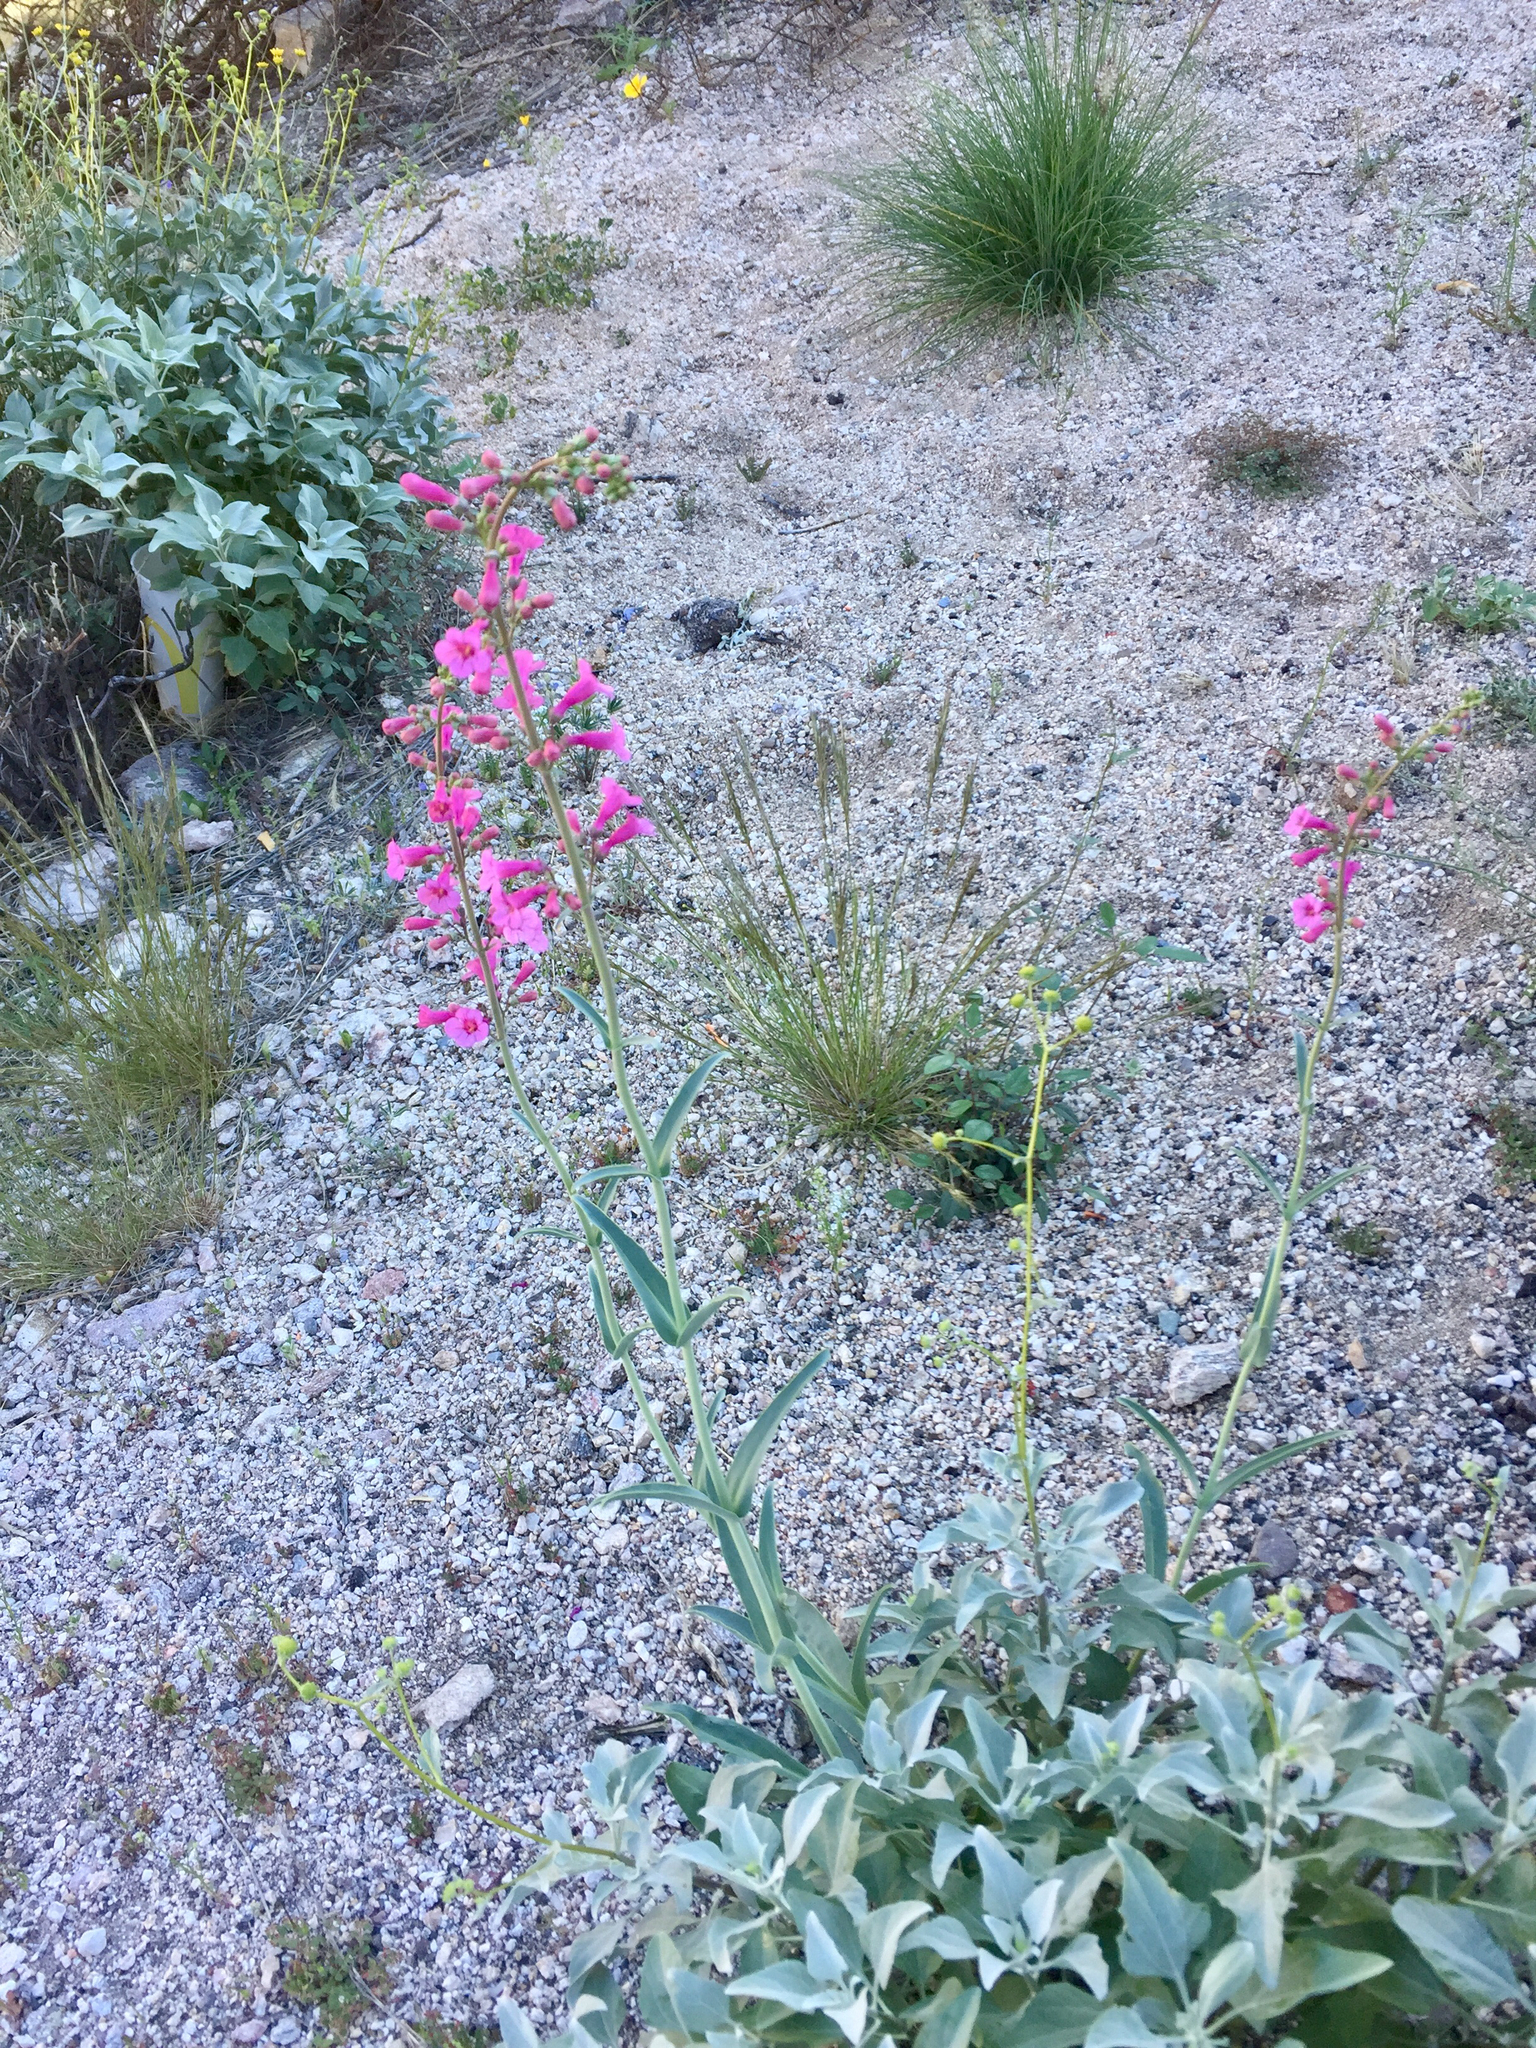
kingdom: Plantae
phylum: Tracheophyta
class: Magnoliopsida
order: Lamiales
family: Plantaginaceae
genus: Penstemon
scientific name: Penstemon parryi
